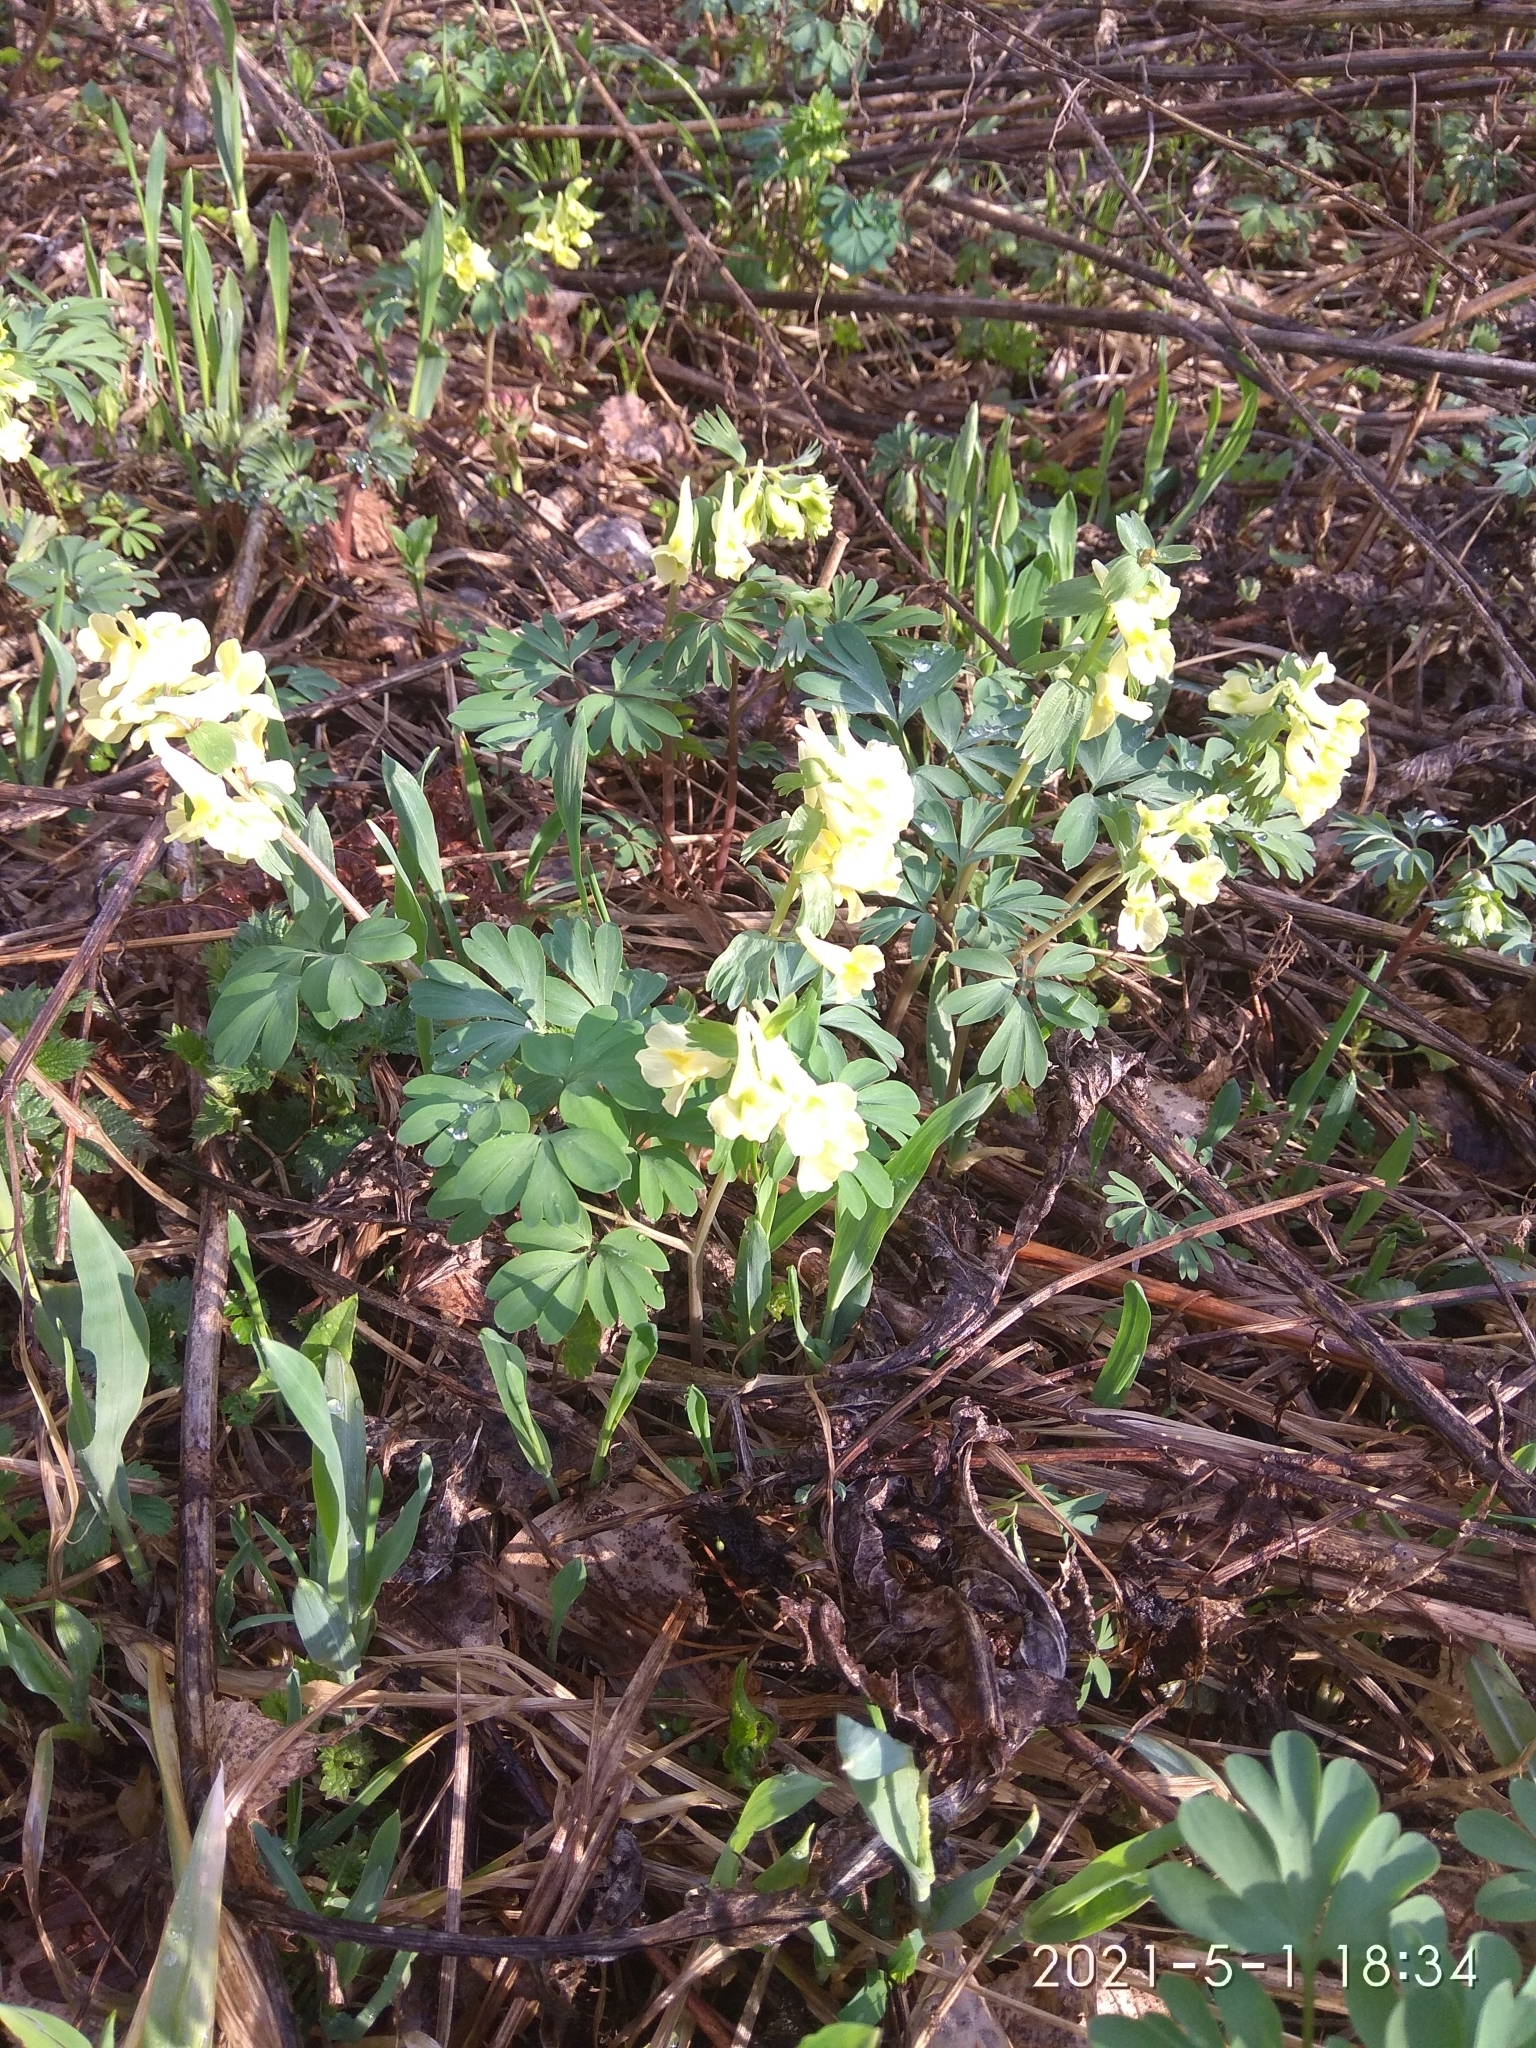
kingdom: Plantae
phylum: Tracheophyta
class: Magnoliopsida
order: Ranunculales
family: Papaveraceae
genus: Corydalis
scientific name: Corydalis bracteata
